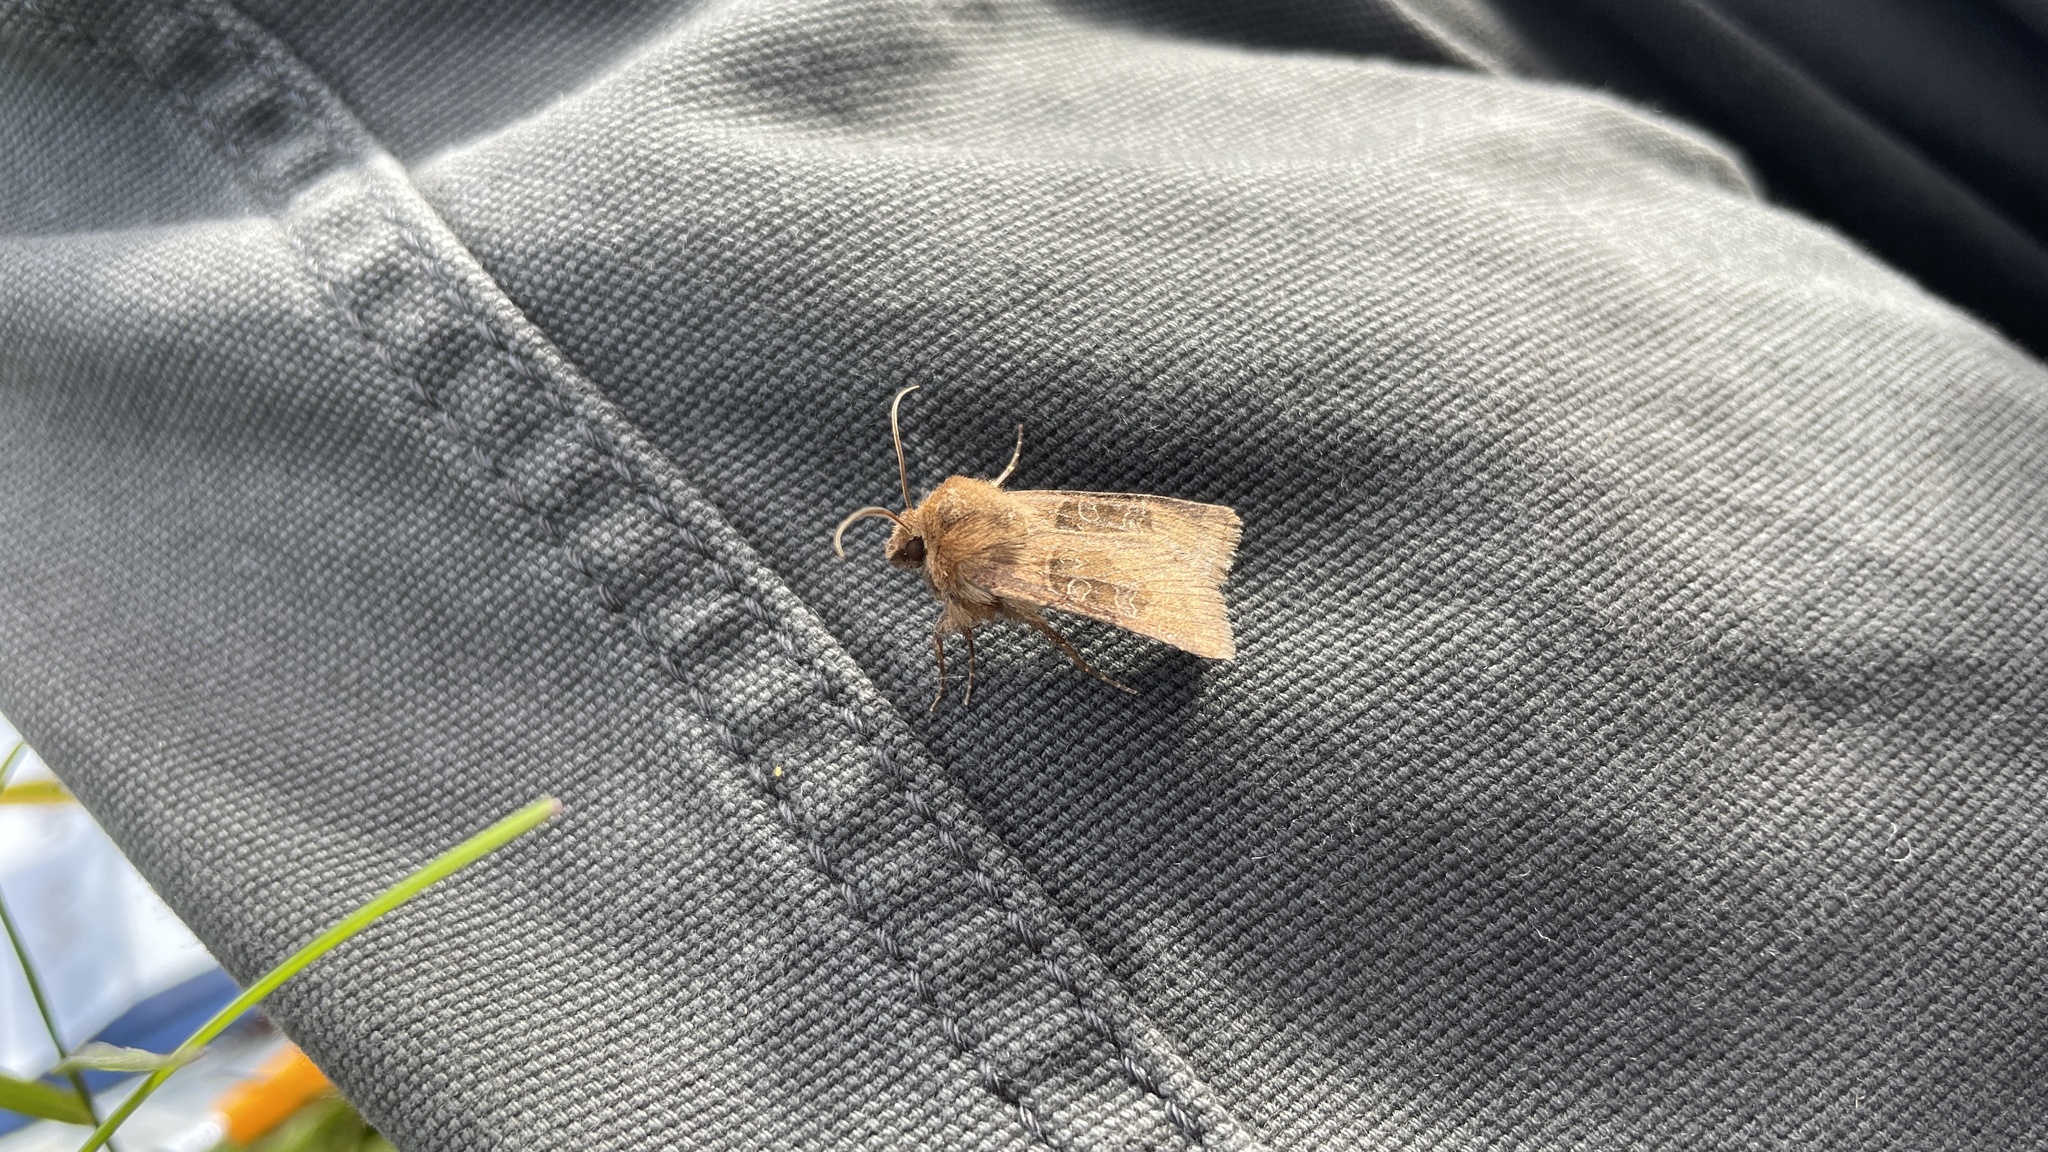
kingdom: Animalia
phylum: Arthropoda
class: Insecta
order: Lepidoptera
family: Noctuidae
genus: Chersotis
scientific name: Chersotis cuprea
